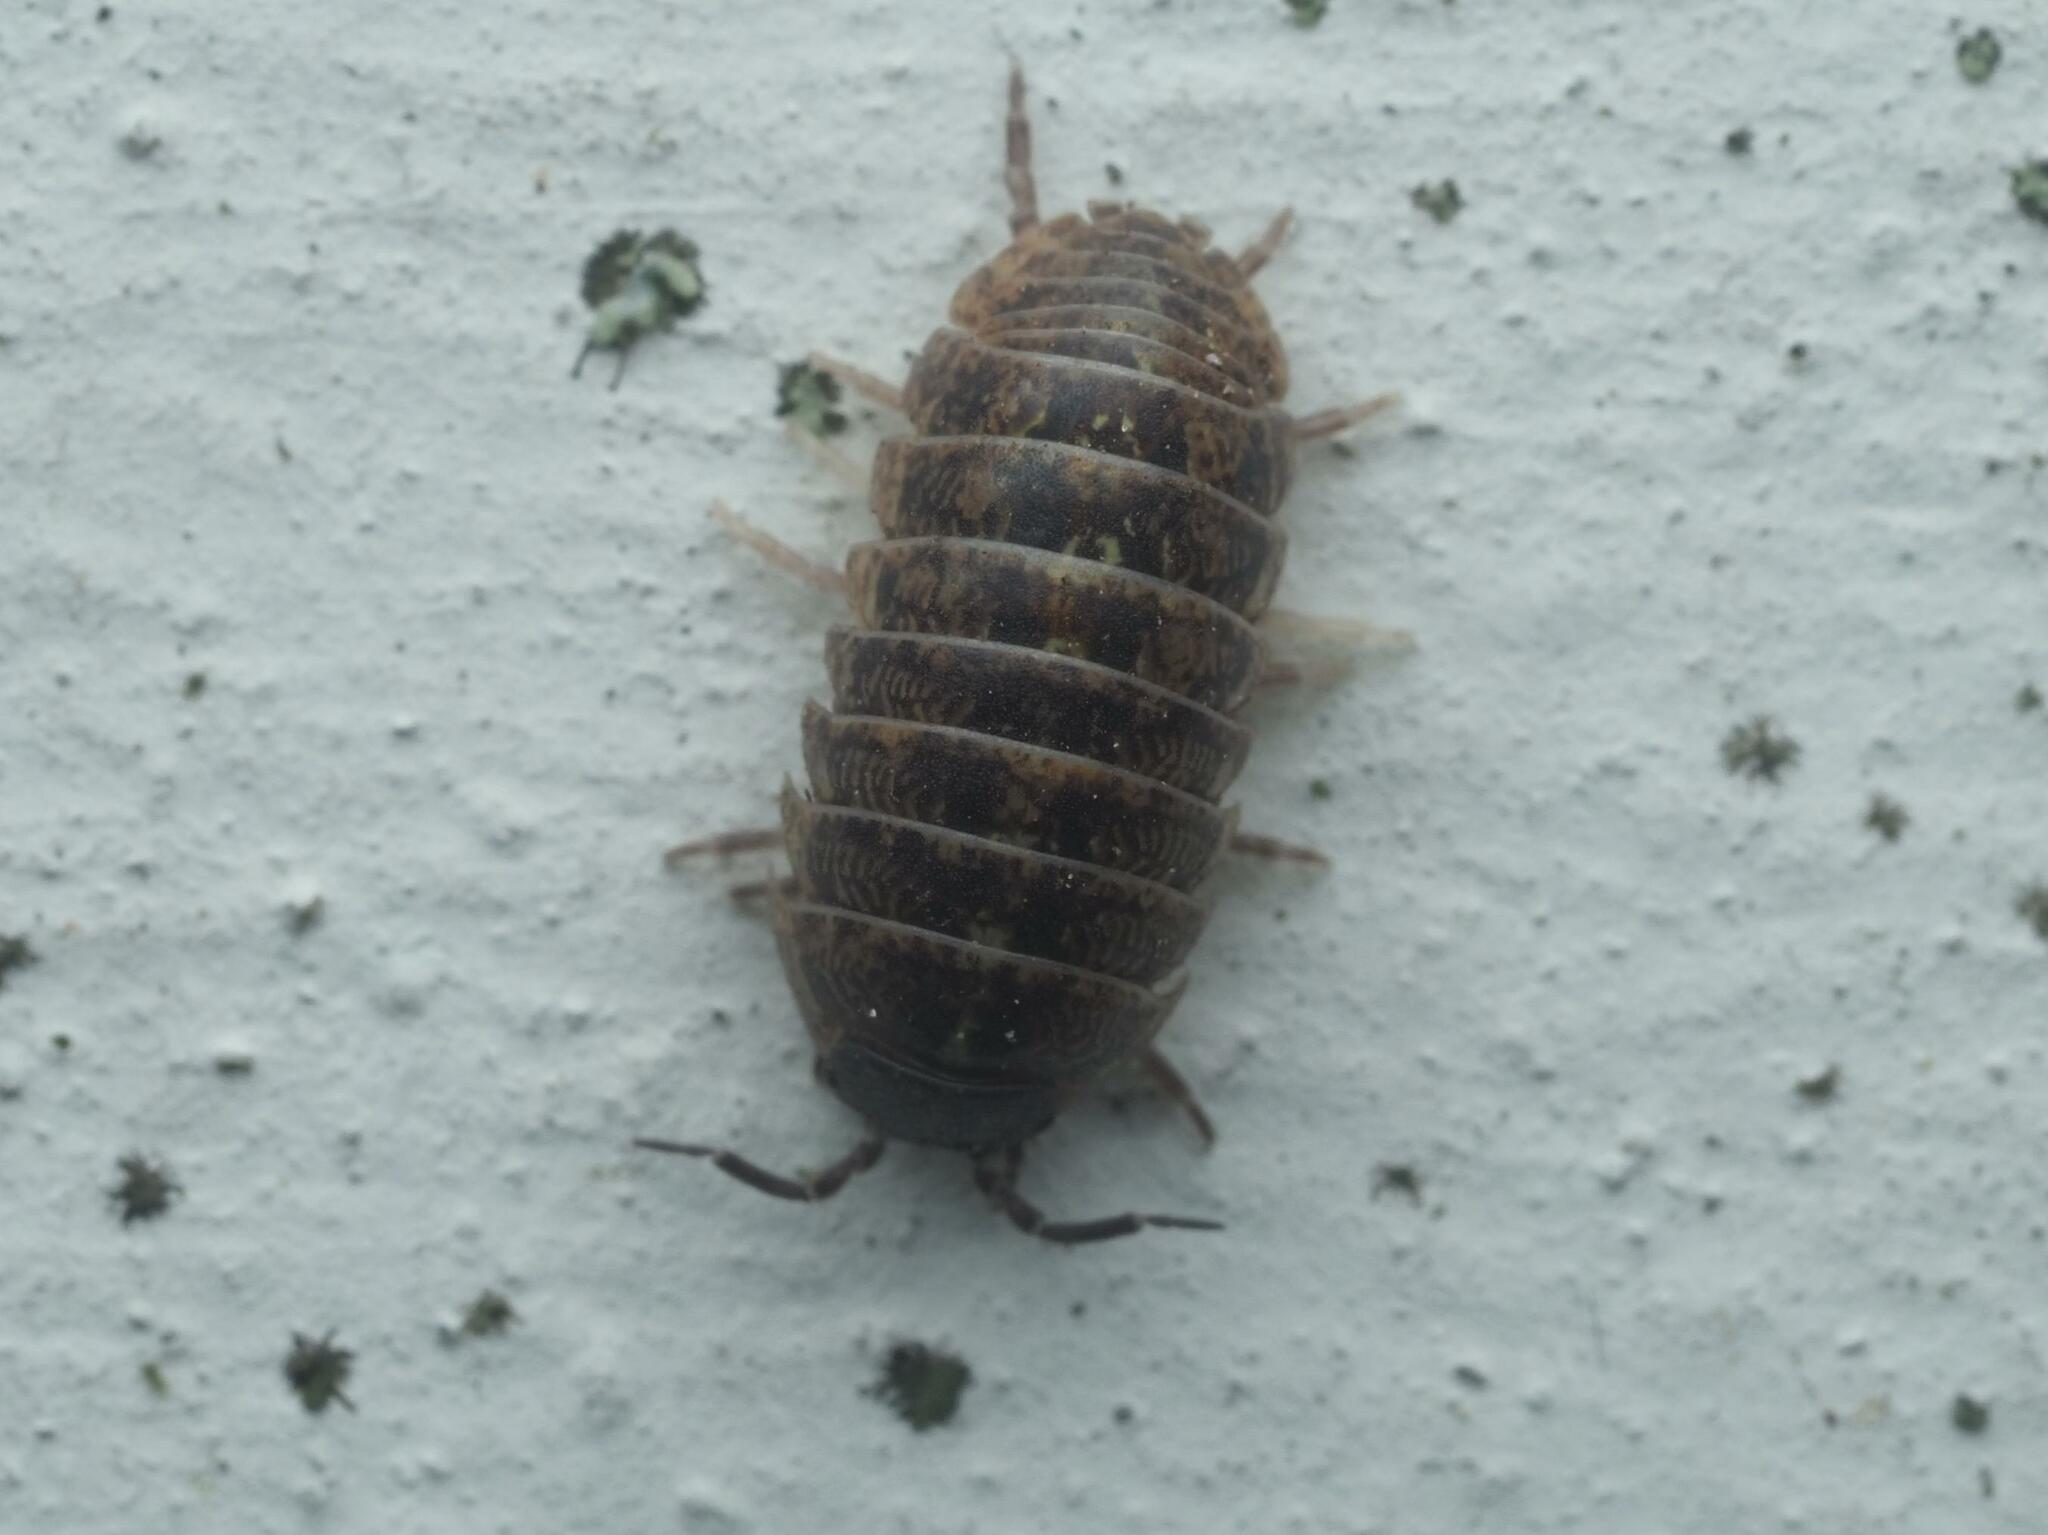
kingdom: Animalia
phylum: Arthropoda
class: Malacostraca
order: Isopoda
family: Armadillidiidae
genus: Armadillidium
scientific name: Armadillidium vulgare
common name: Common pill woodlouse
